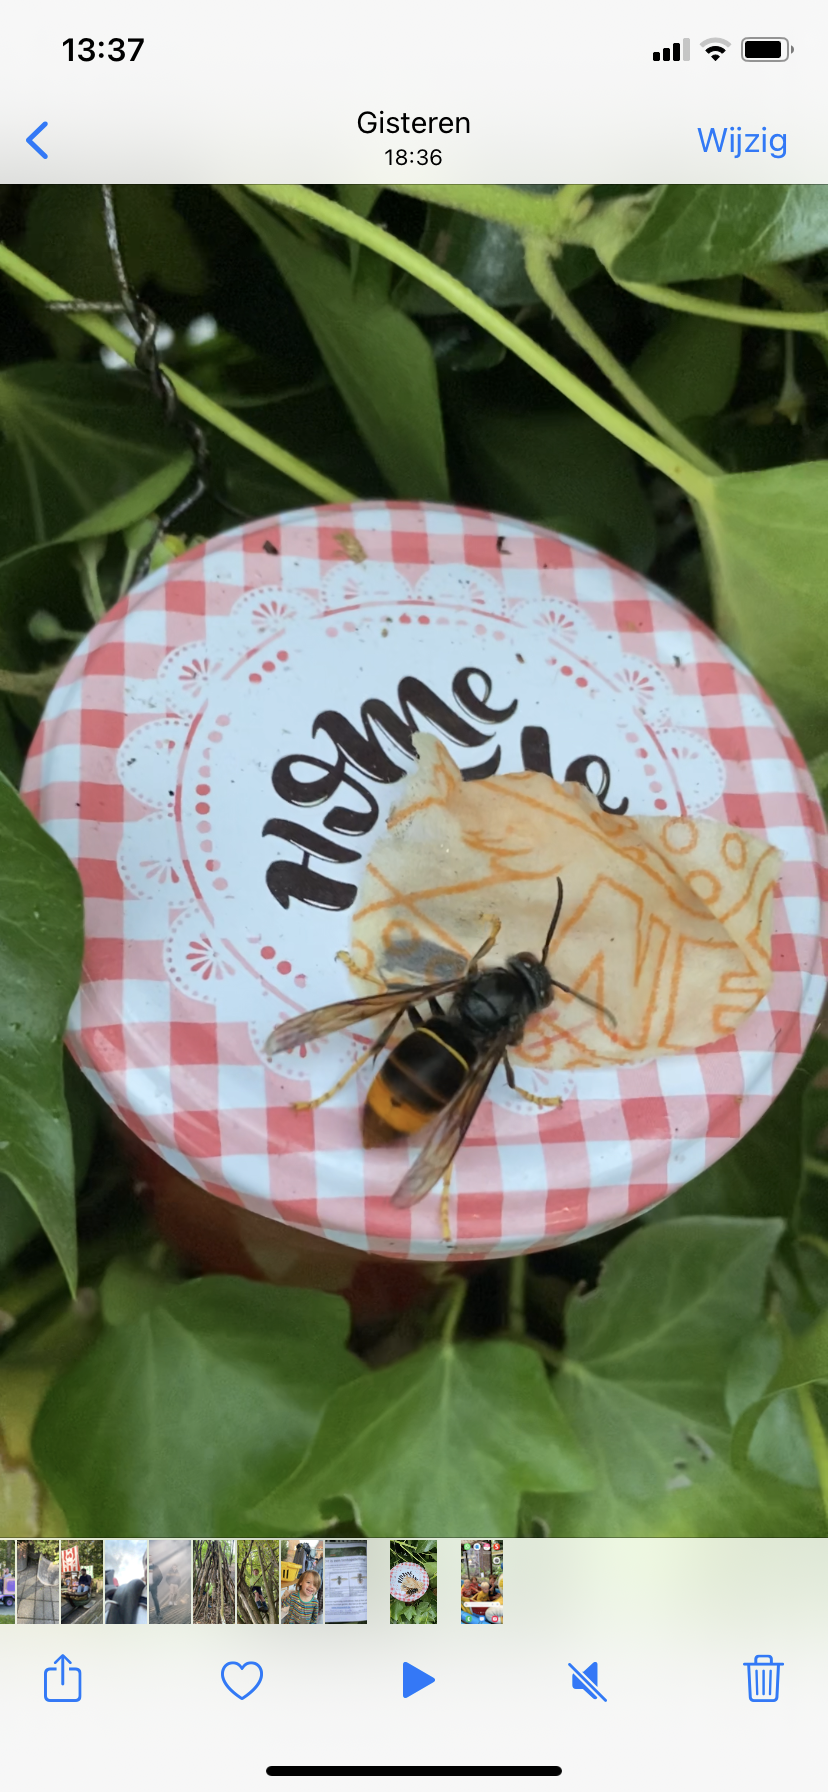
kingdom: Animalia
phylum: Arthropoda
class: Insecta
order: Hymenoptera
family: Vespidae
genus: Vespa
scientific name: Vespa velutina
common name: Asian hornet
